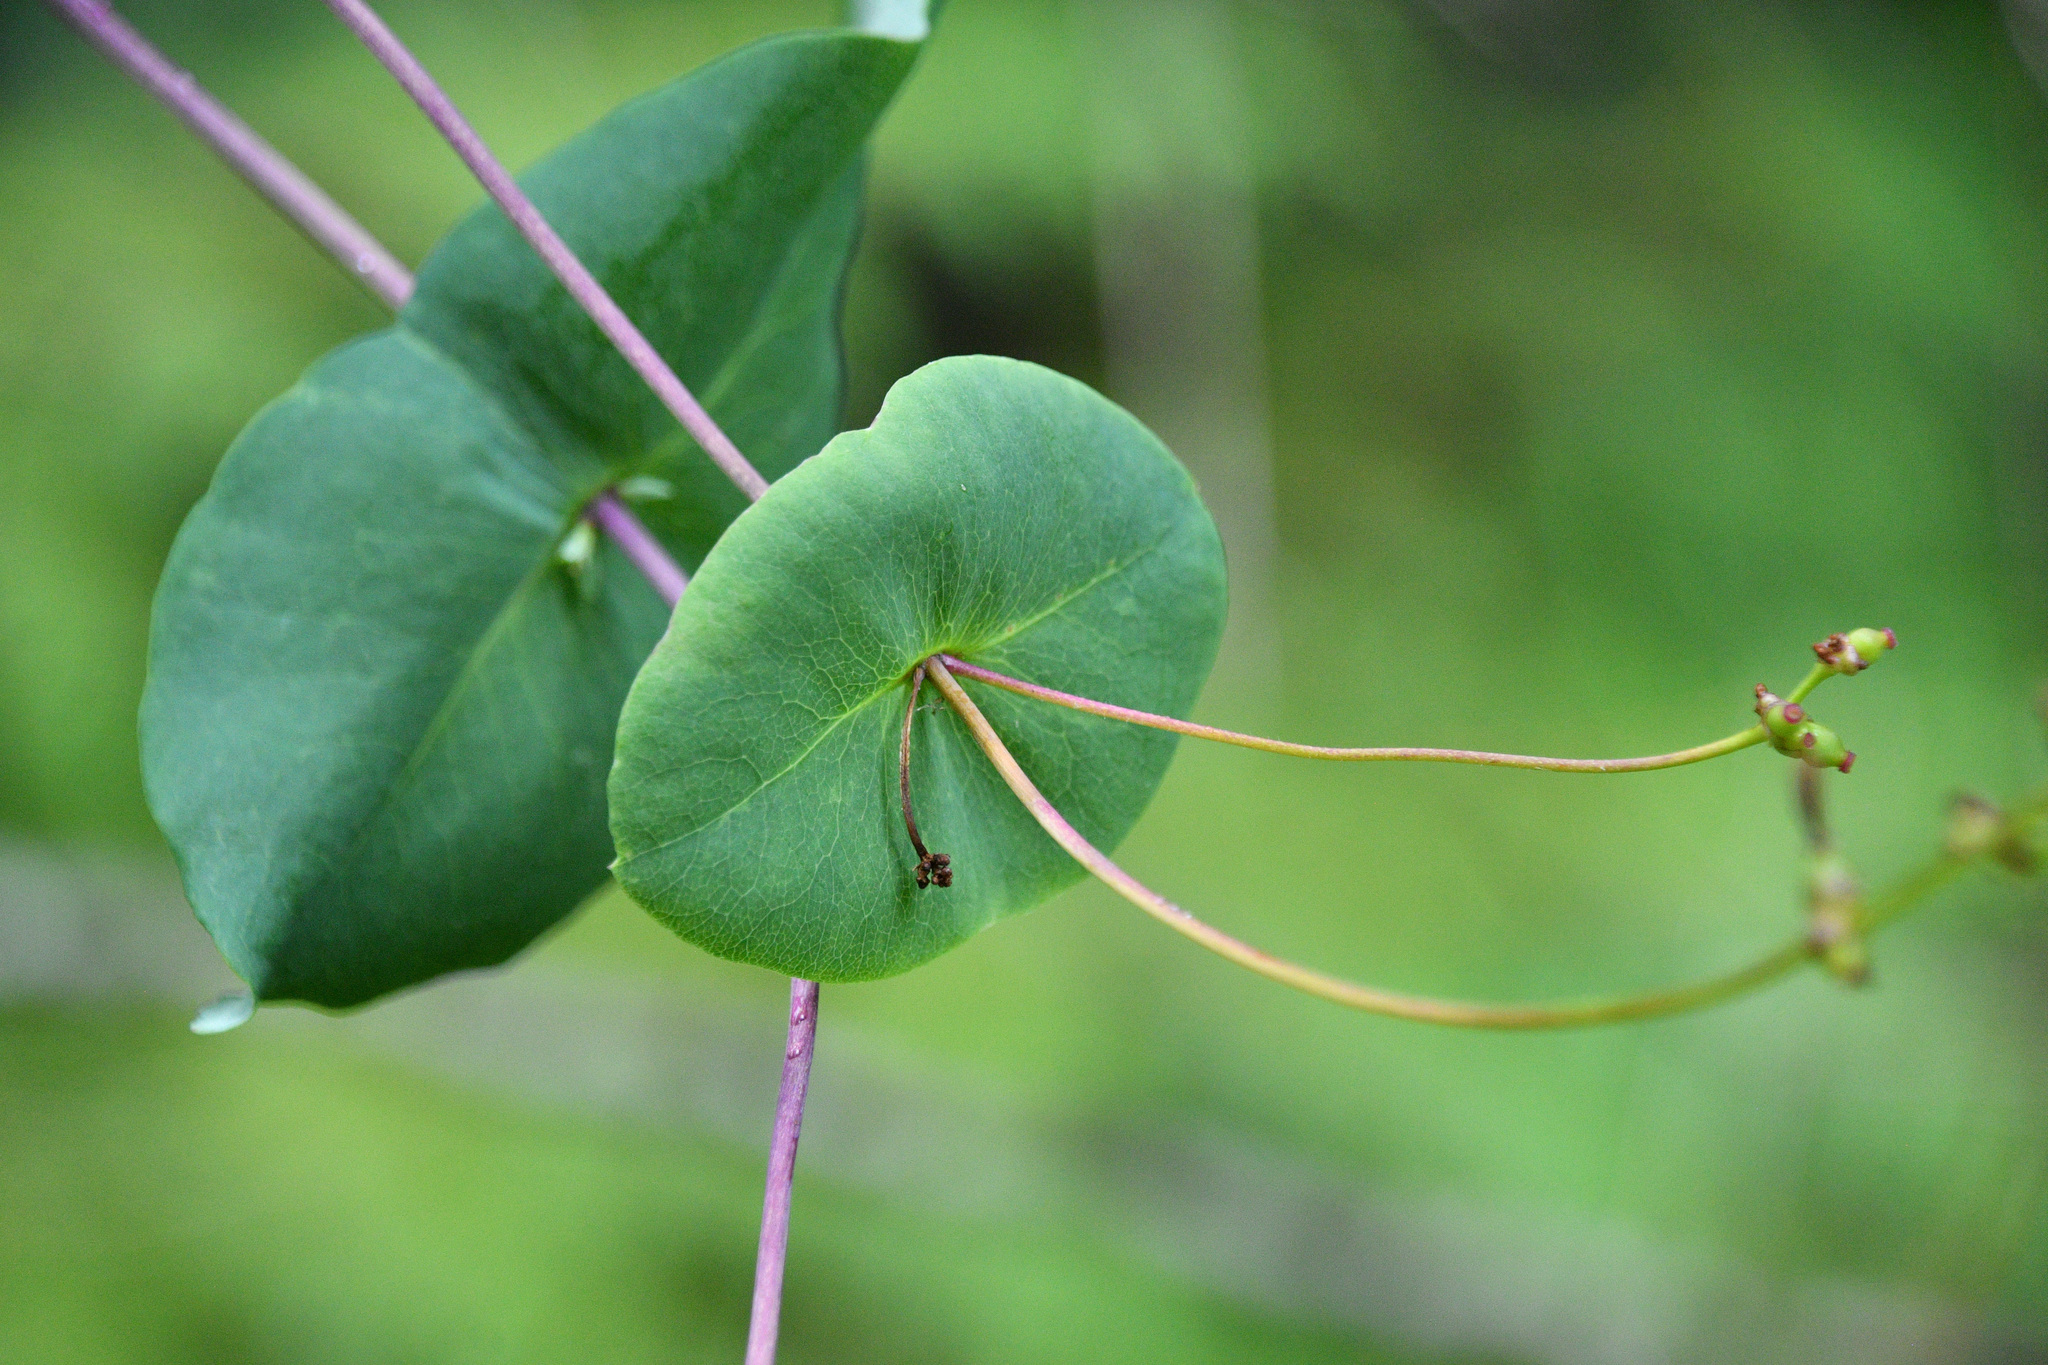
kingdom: Plantae
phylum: Tracheophyta
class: Magnoliopsida
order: Dipsacales
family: Caprifoliaceae
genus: Lonicera
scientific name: Lonicera hispidula
